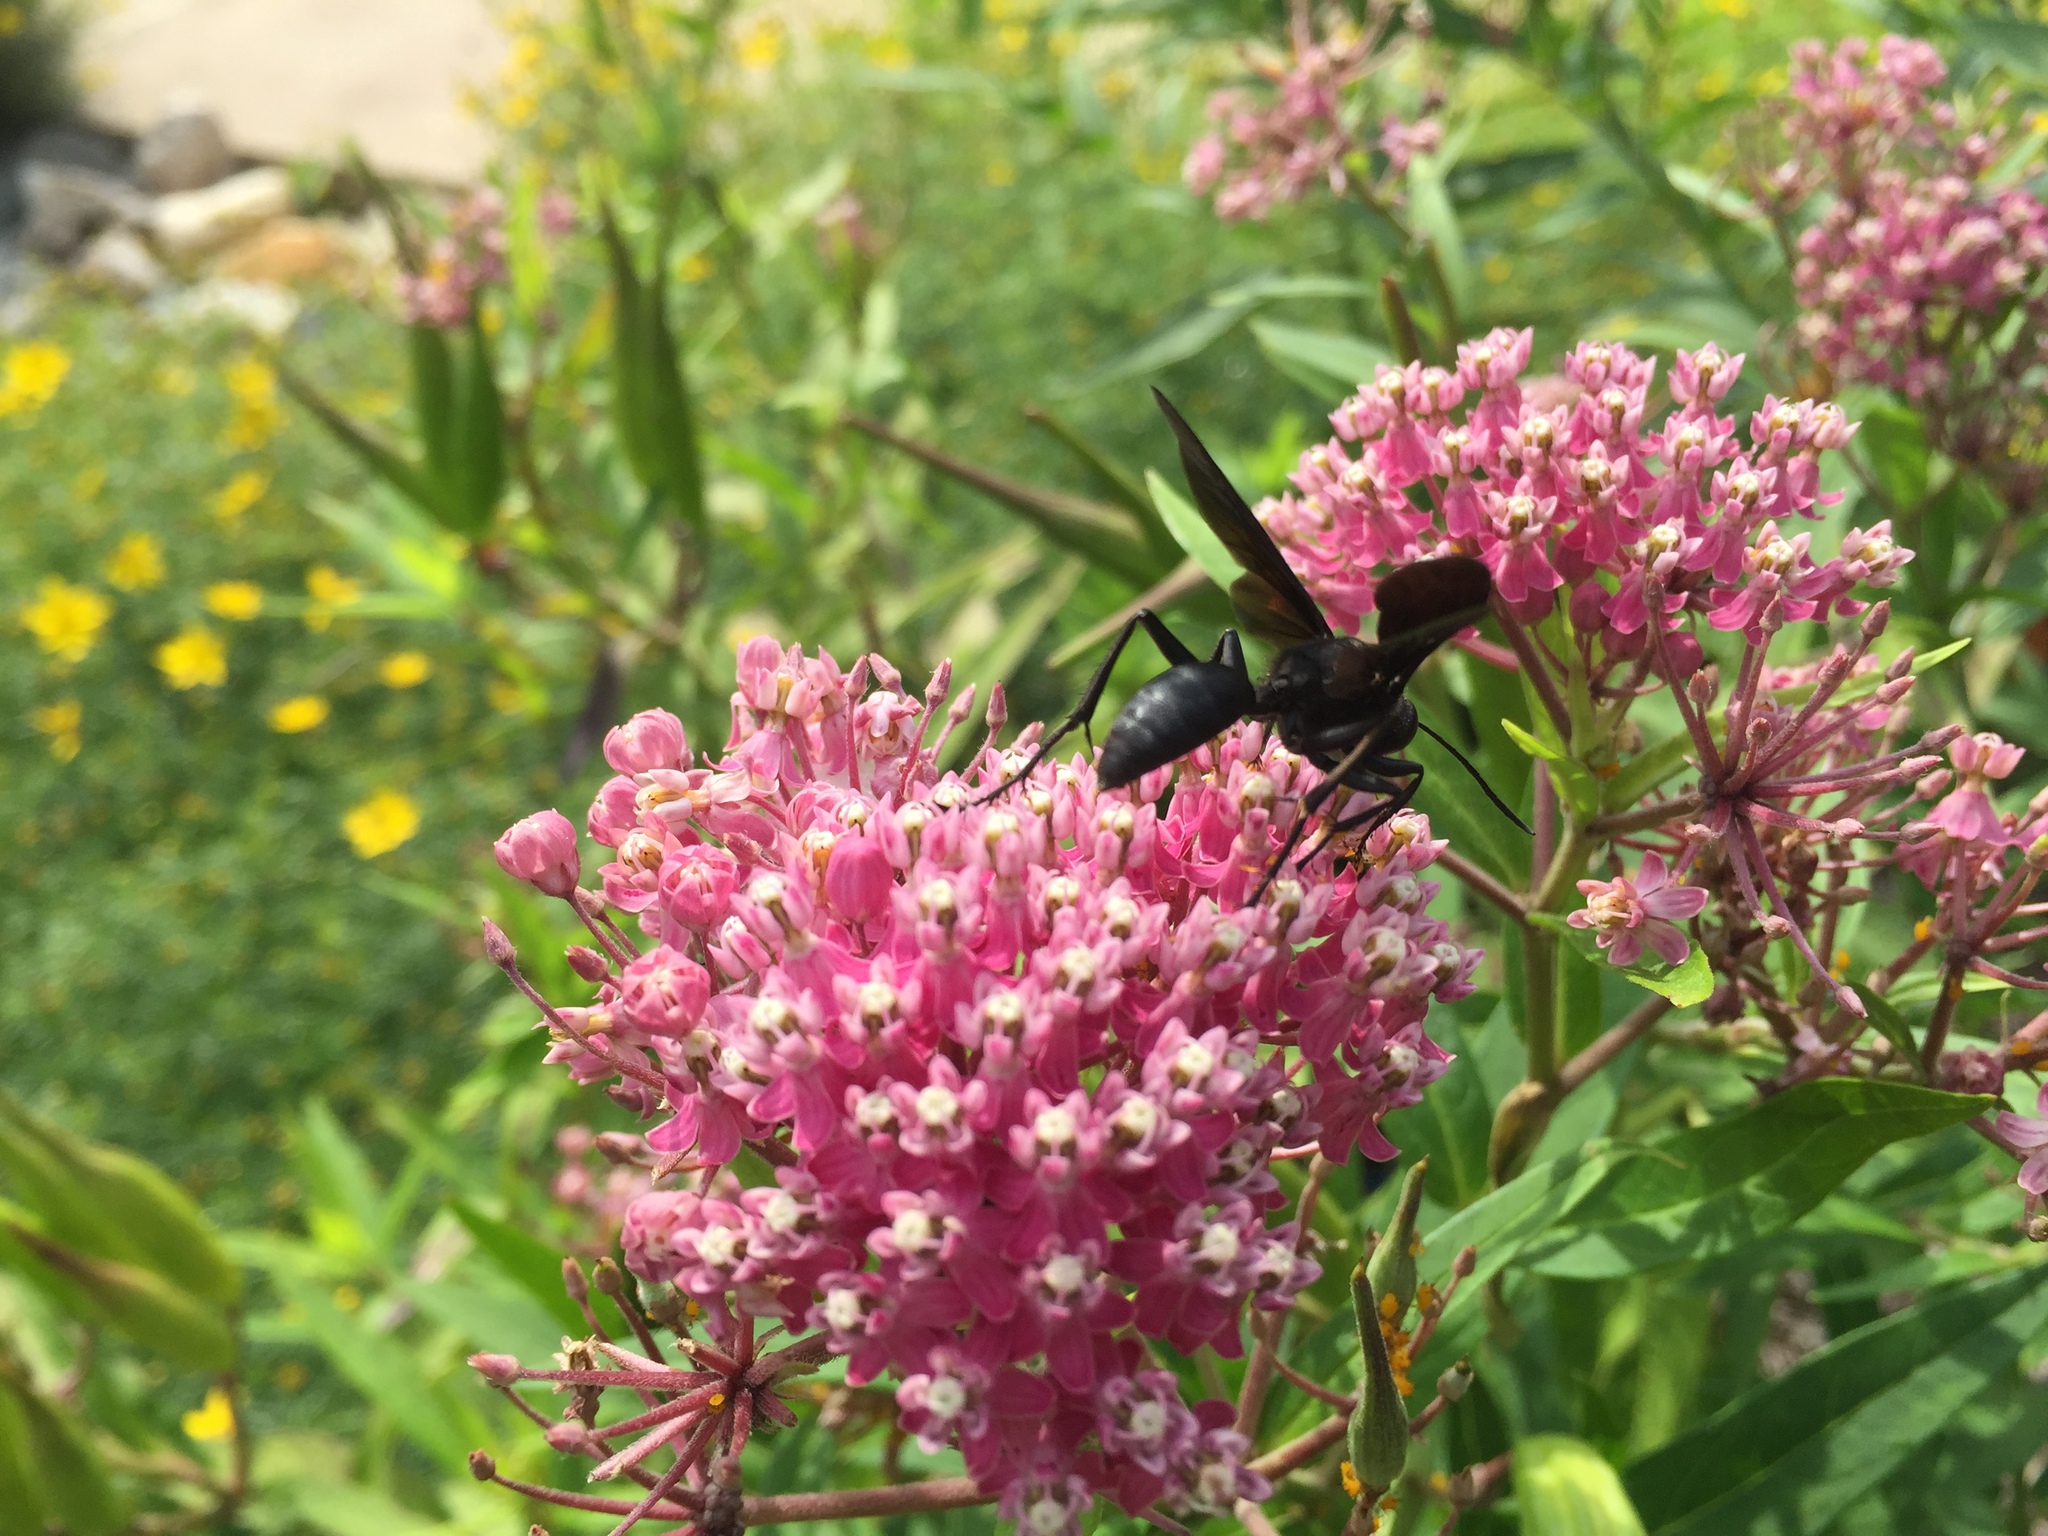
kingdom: Animalia
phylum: Arthropoda
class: Insecta
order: Hymenoptera
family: Sphecidae
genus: Sphex
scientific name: Sphex pensylvanicus
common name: Great black digger wasp
